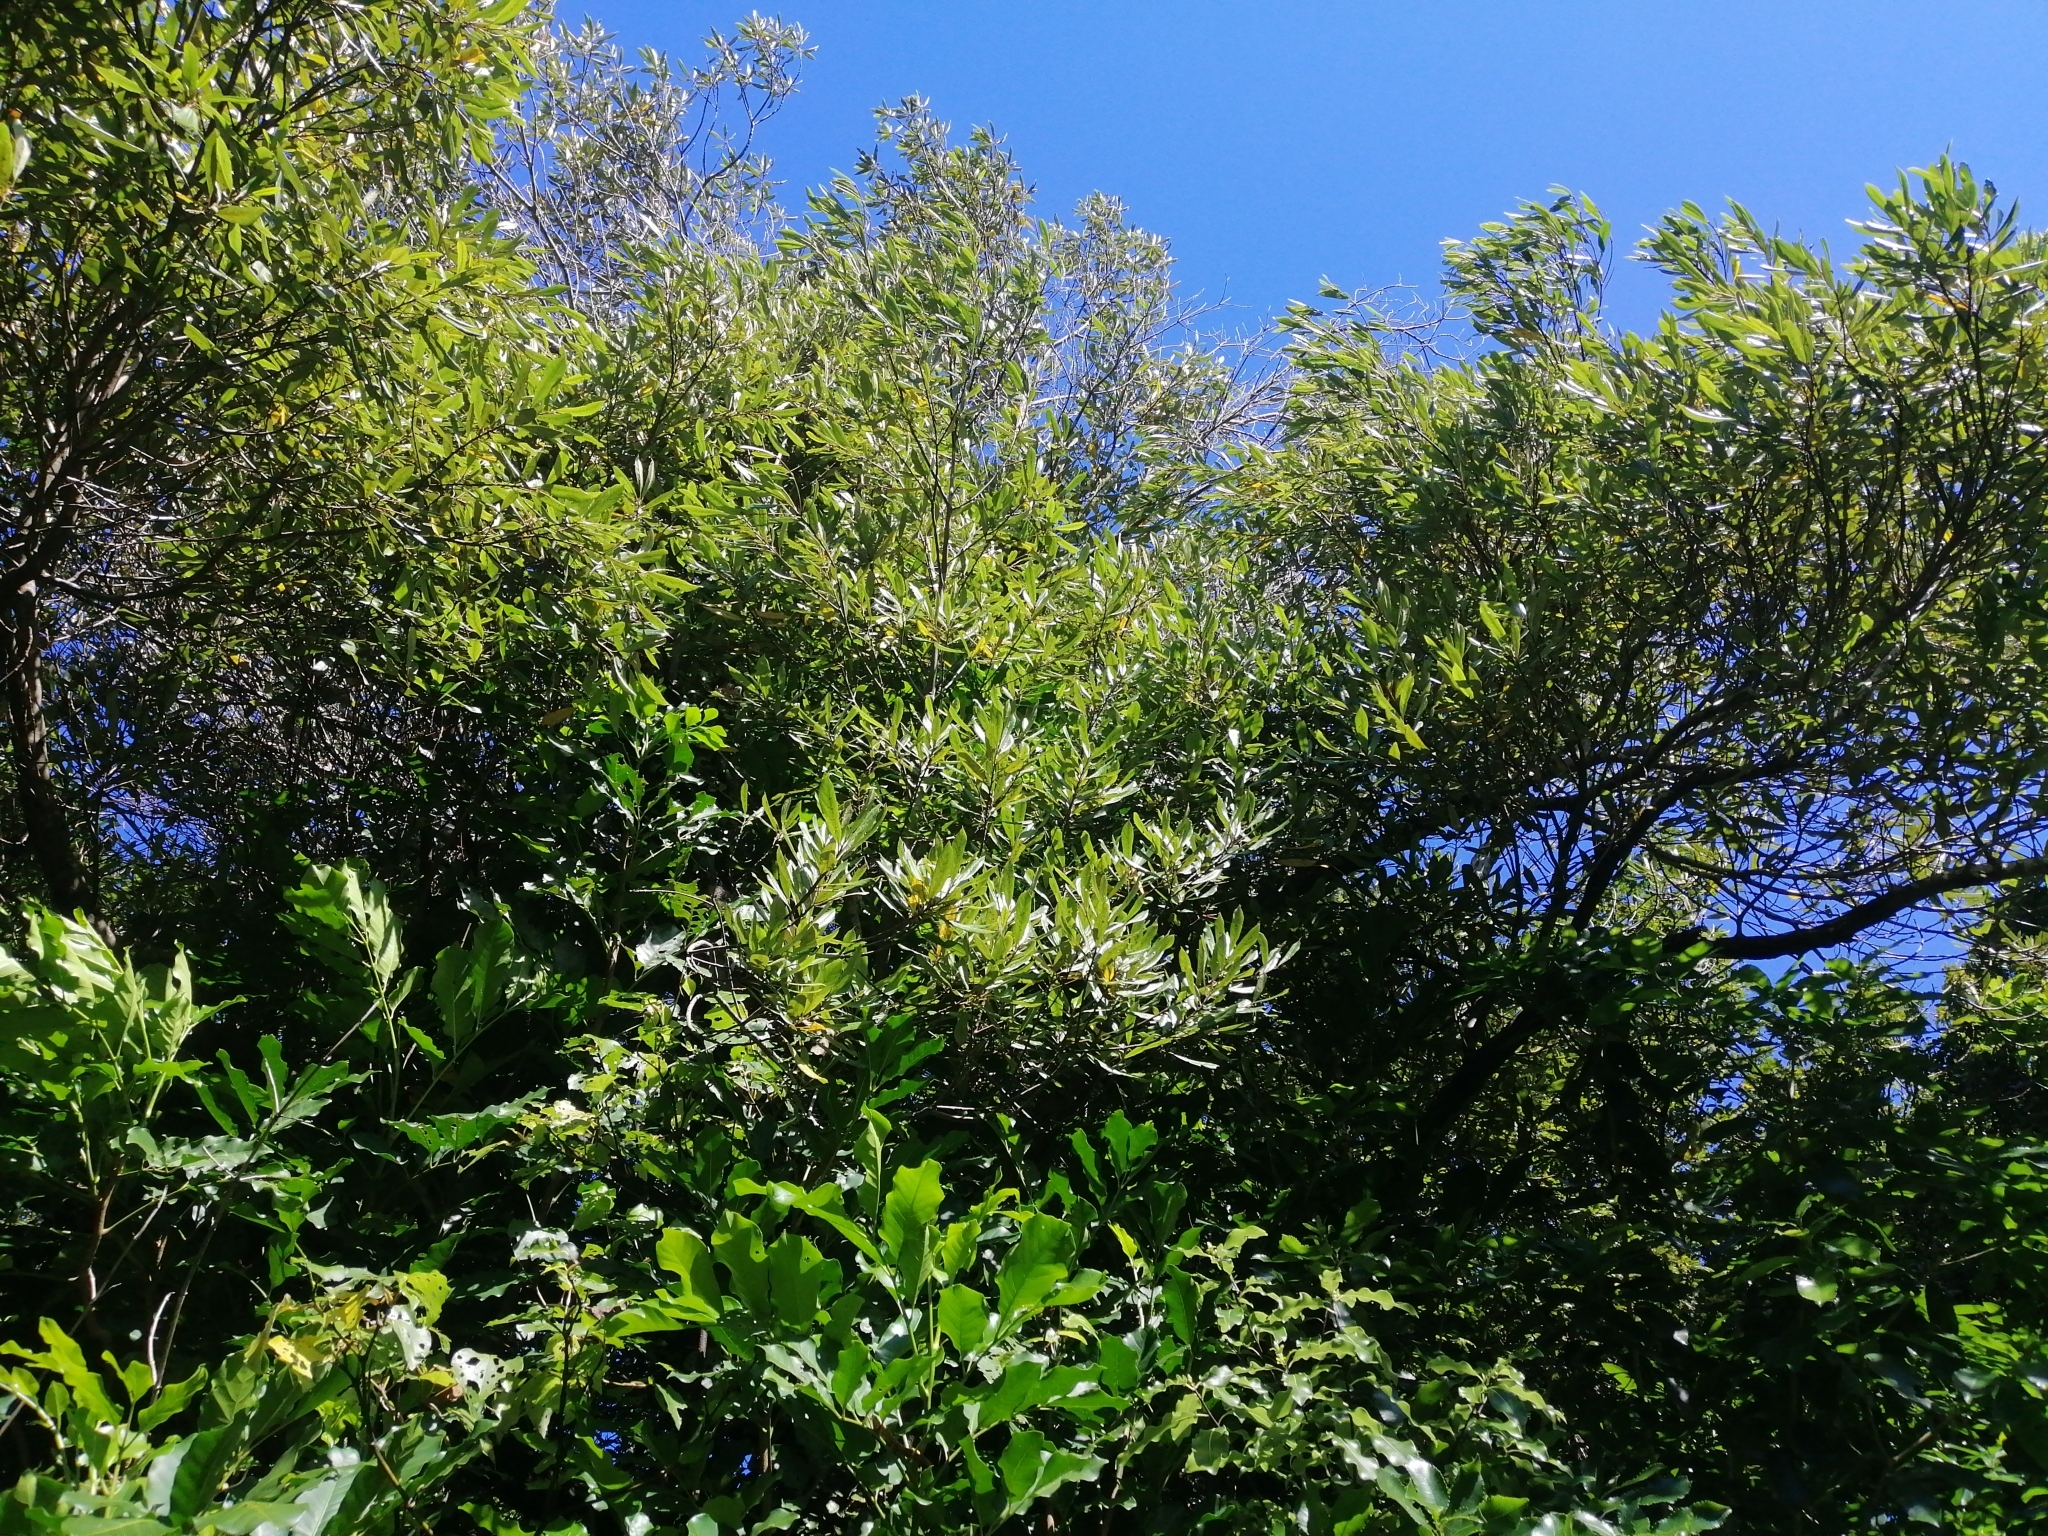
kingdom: Plantae
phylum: Tracheophyta
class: Magnoliopsida
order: Oxalidales
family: Elaeocarpaceae
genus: Elaeocarpus
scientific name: Elaeocarpus dentatus
